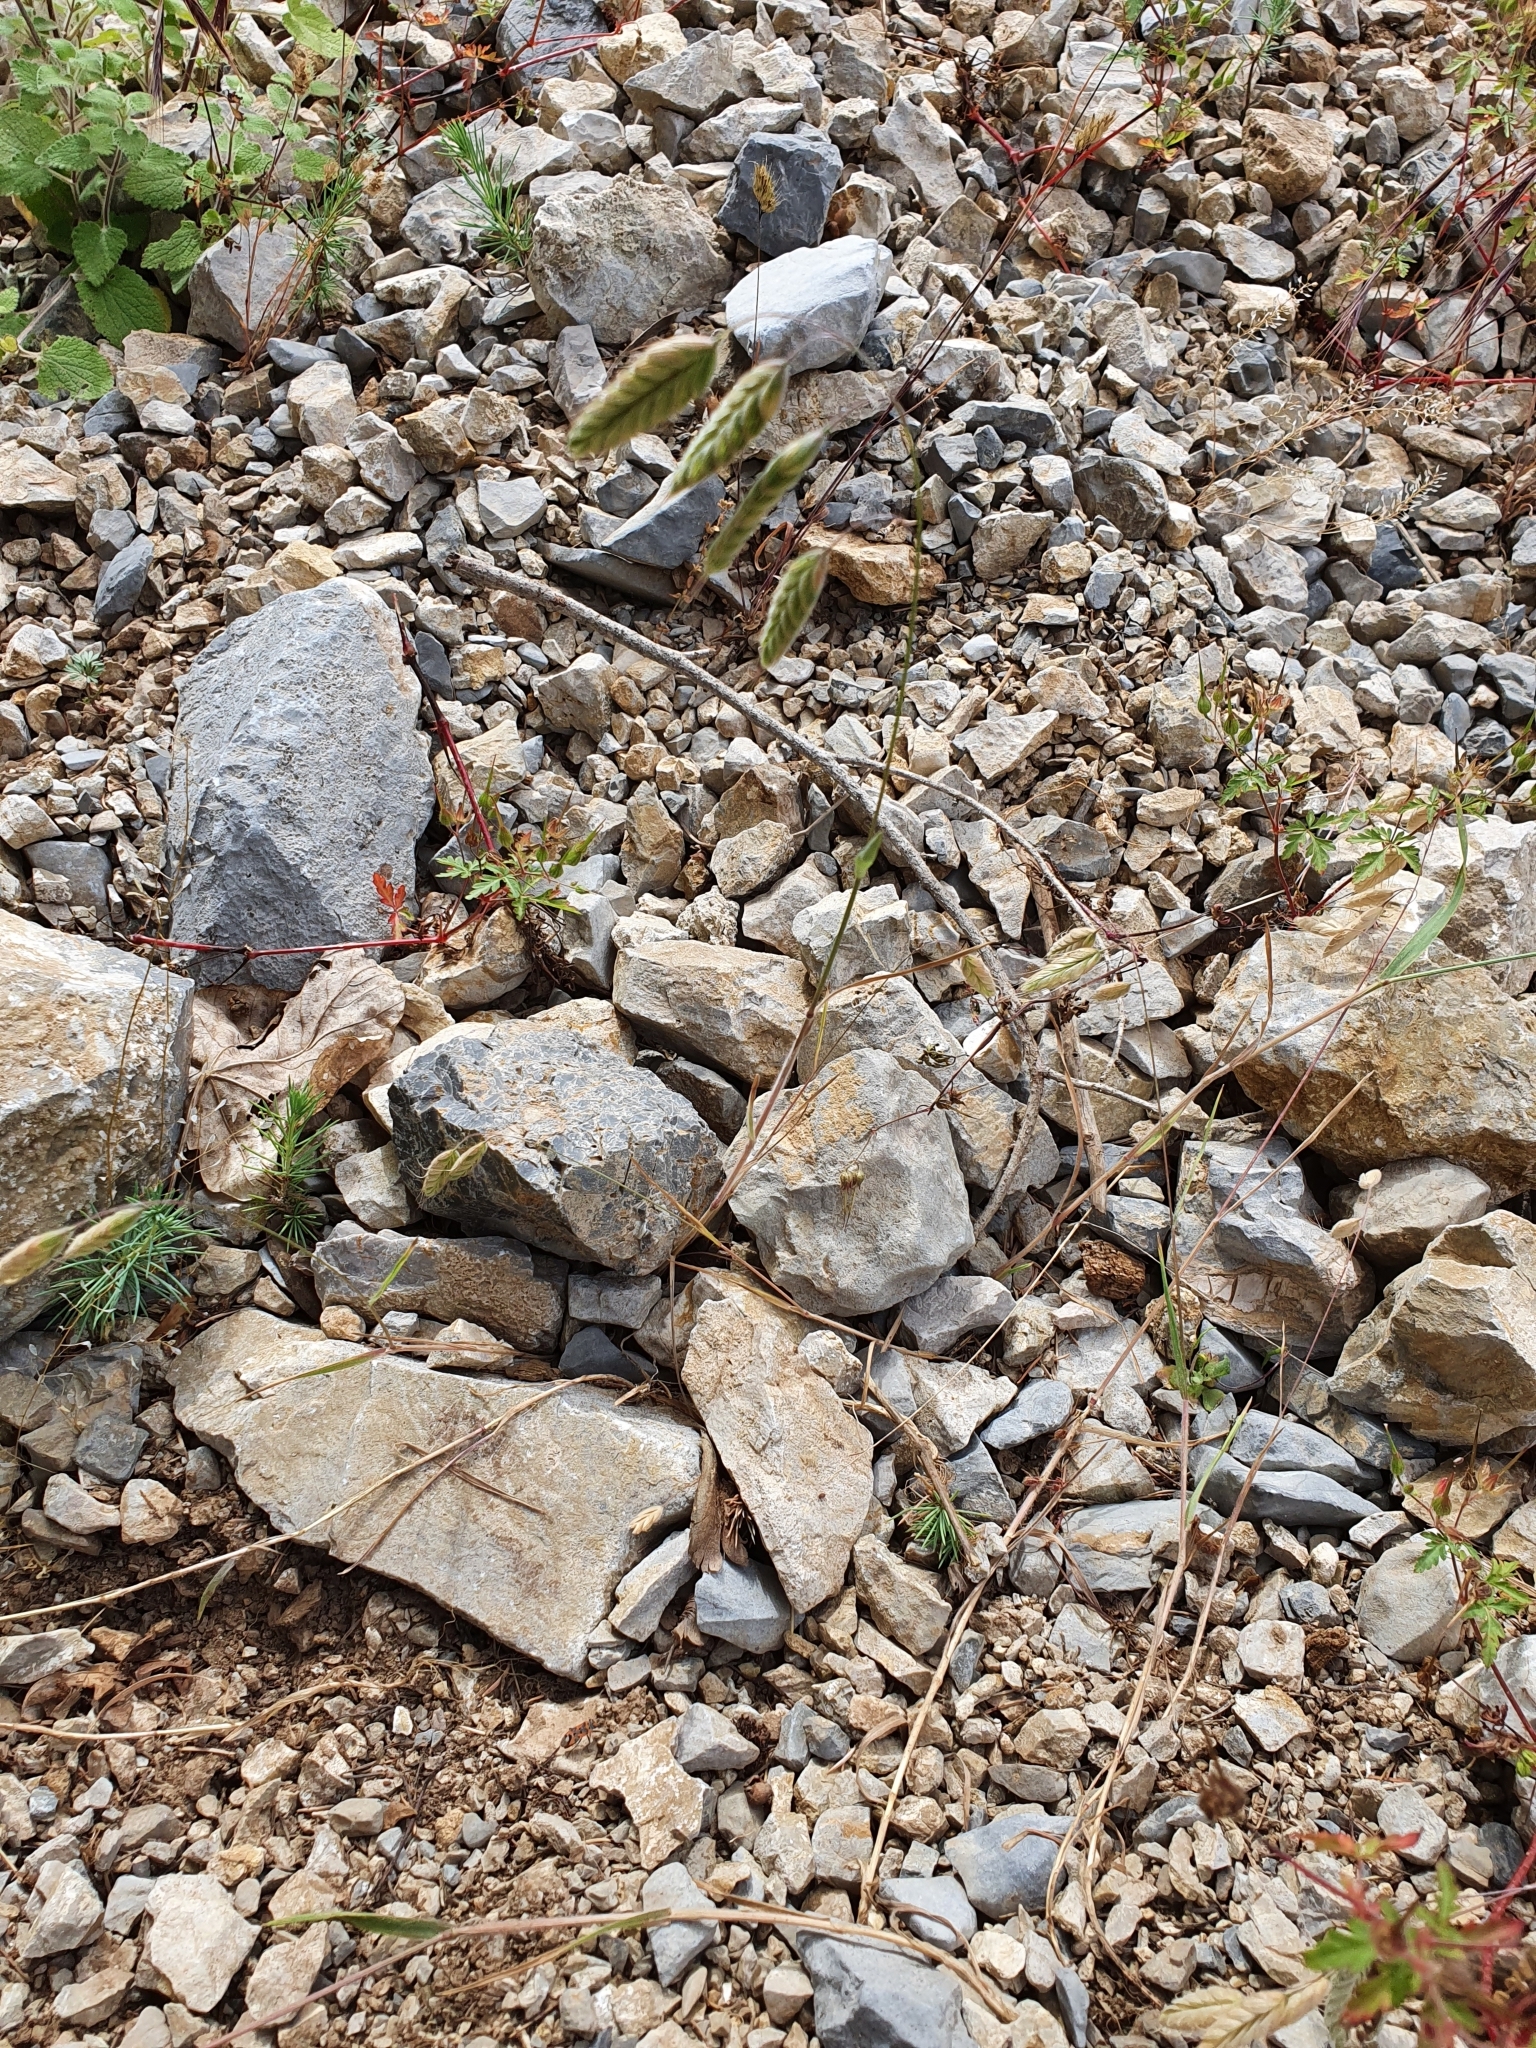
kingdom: Plantae
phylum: Tracheophyta
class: Liliopsida
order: Poales
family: Poaceae
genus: Bromus
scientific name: Bromus squarrosus
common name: Corn brome
